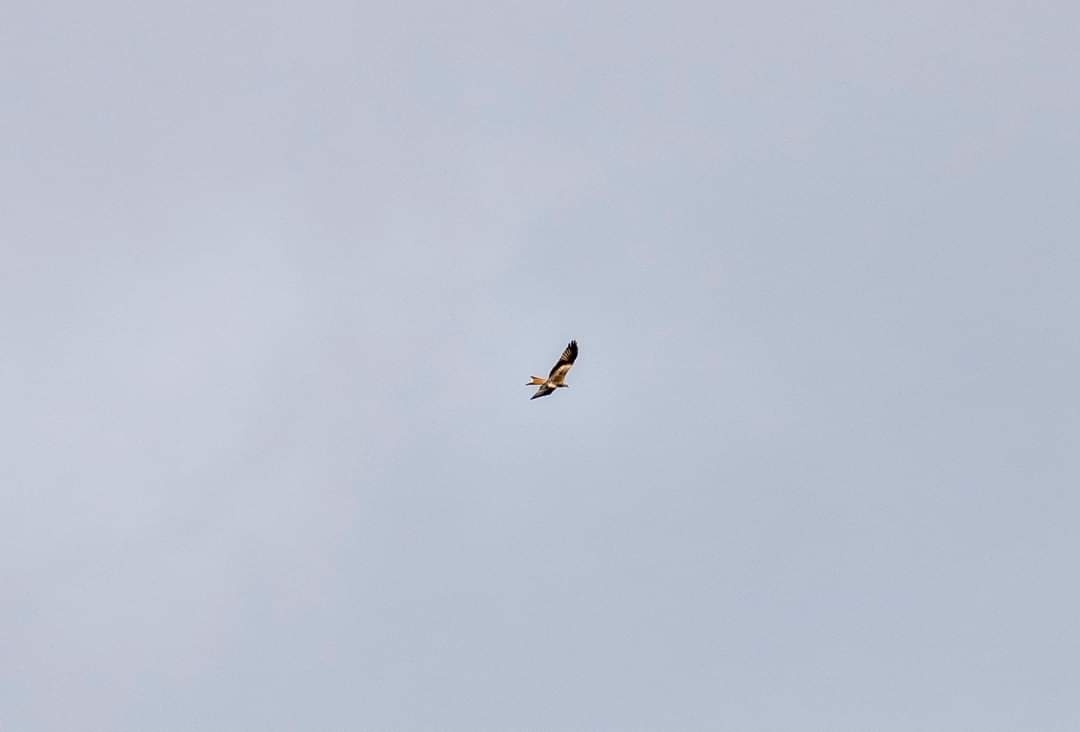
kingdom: Animalia
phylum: Chordata
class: Aves
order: Accipitriformes
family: Accipitridae
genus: Milvus
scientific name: Milvus milvus
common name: Red kite
